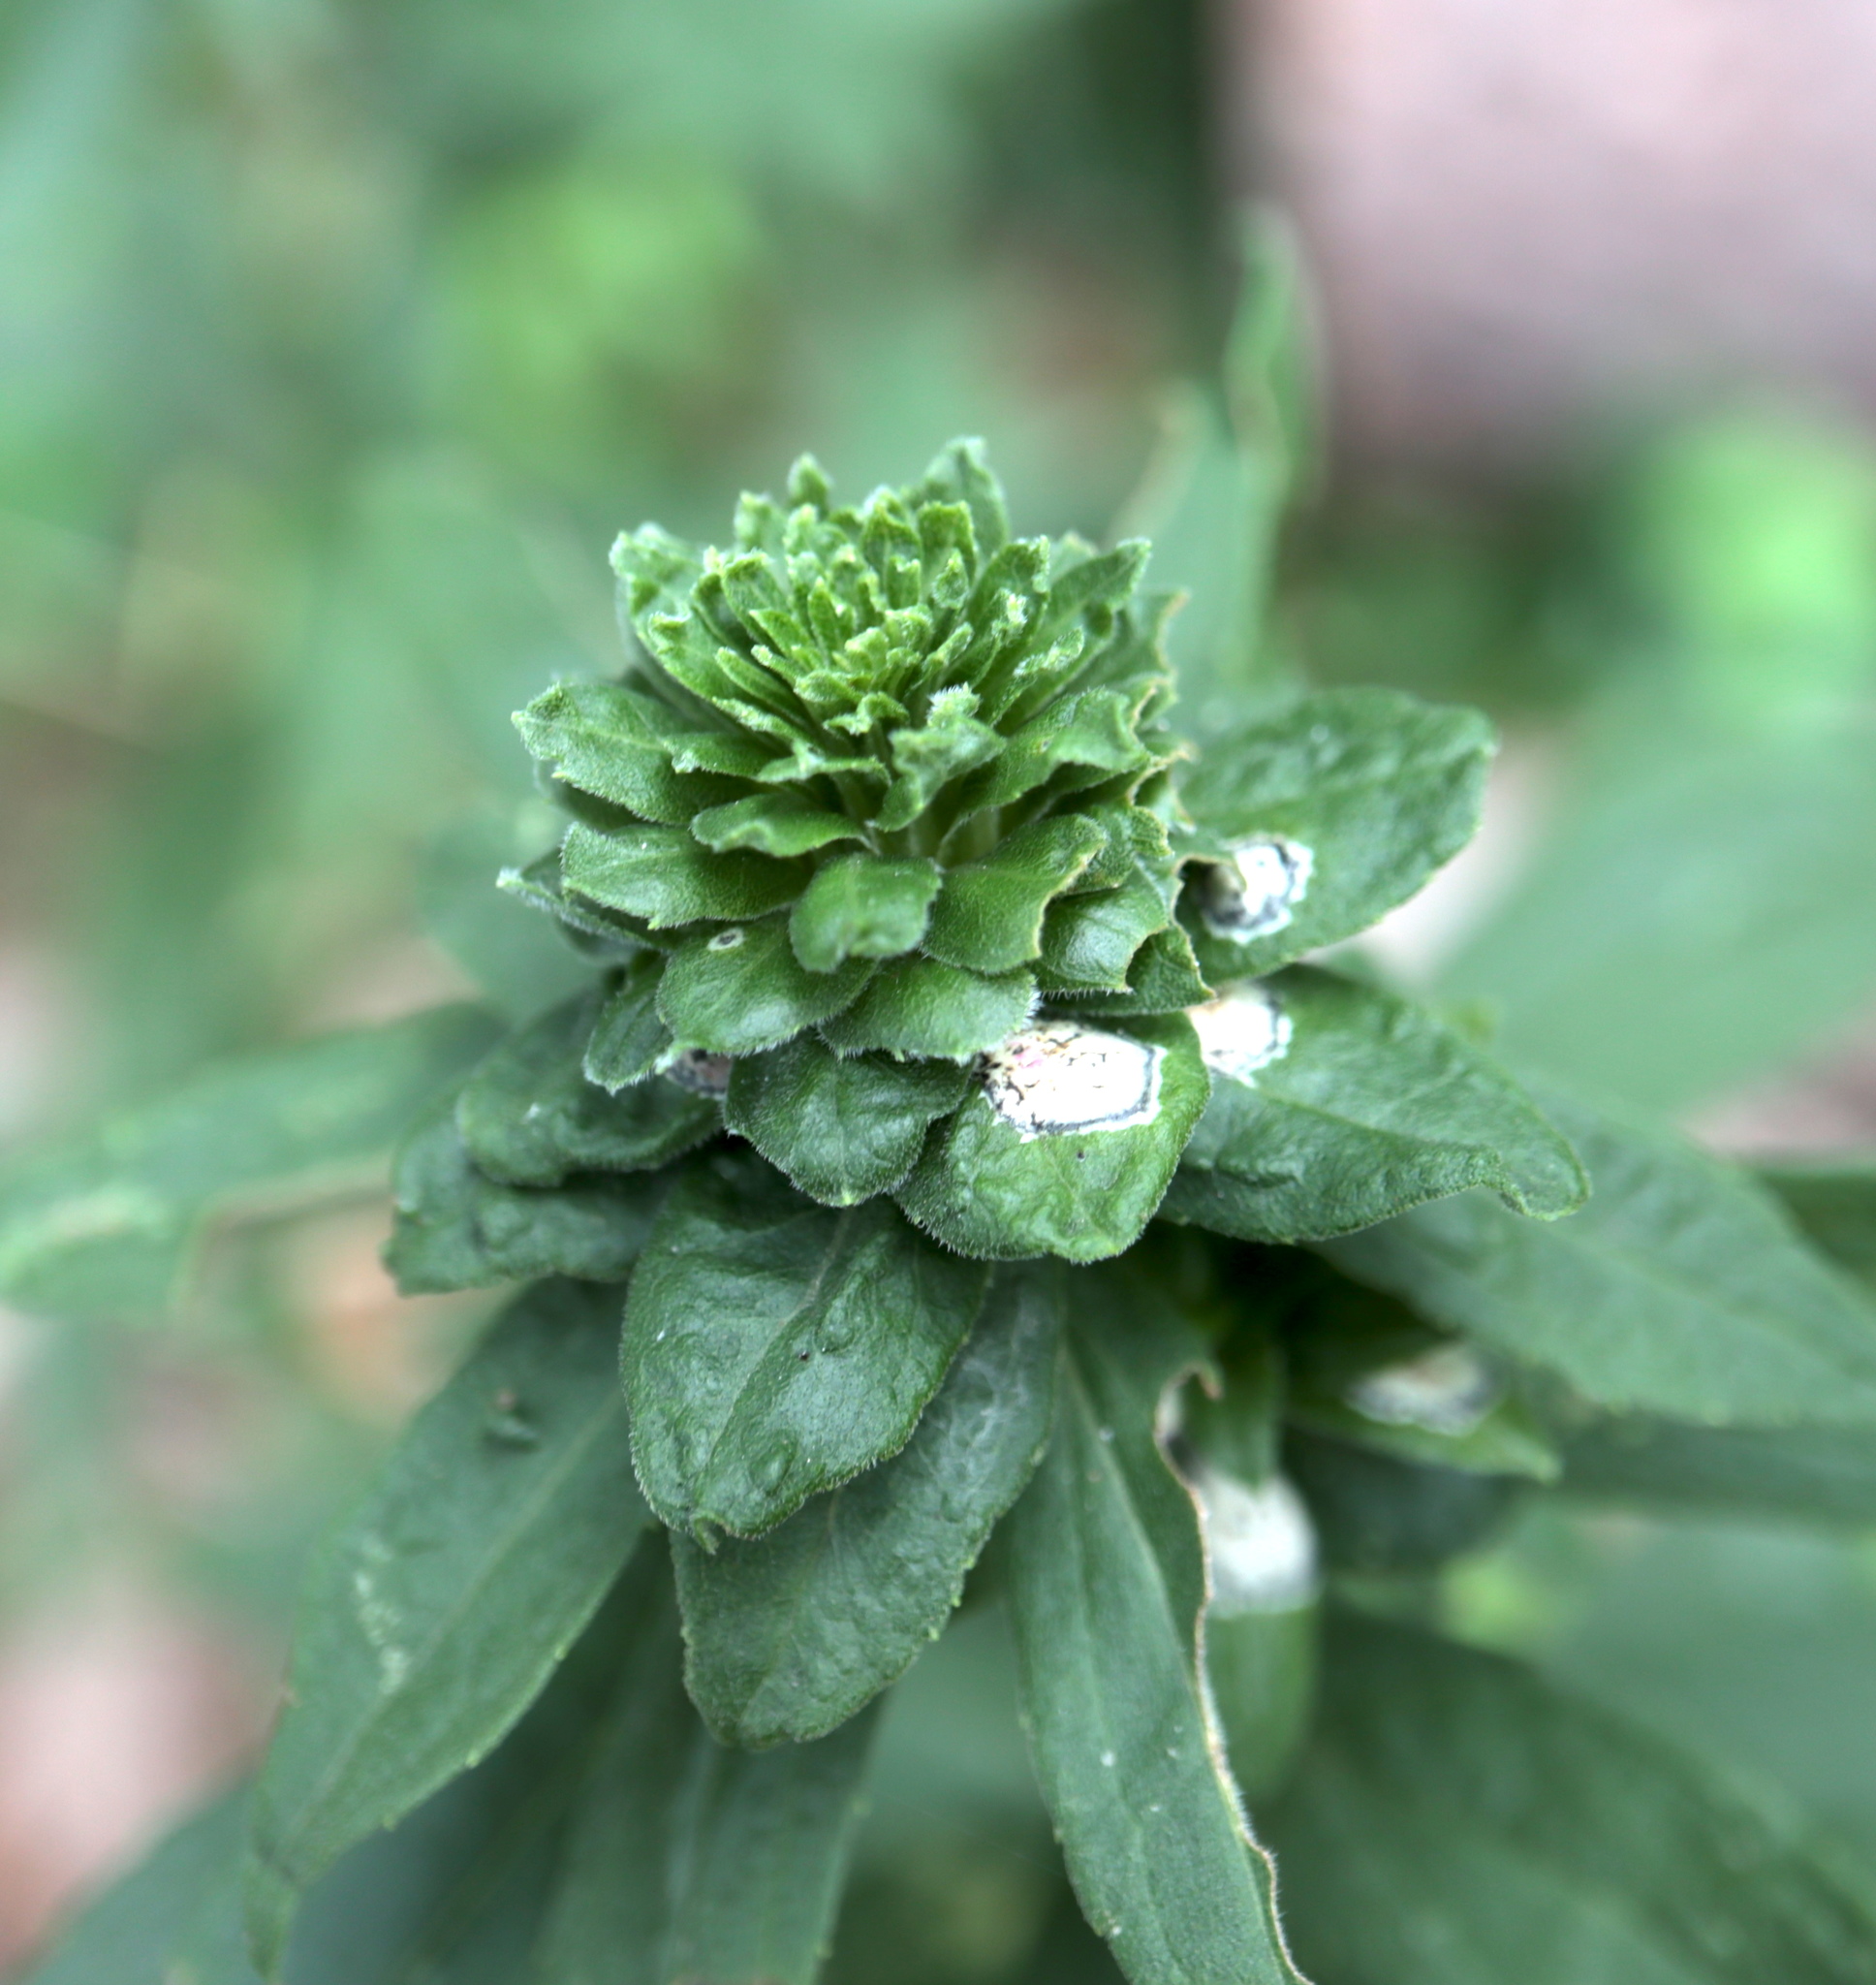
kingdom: Animalia
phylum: Arthropoda
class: Insecta
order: Diptera
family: Tephritidae
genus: Procecidochares
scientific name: Procecidochares atra
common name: Goldenrod brussels sprout gall fly
